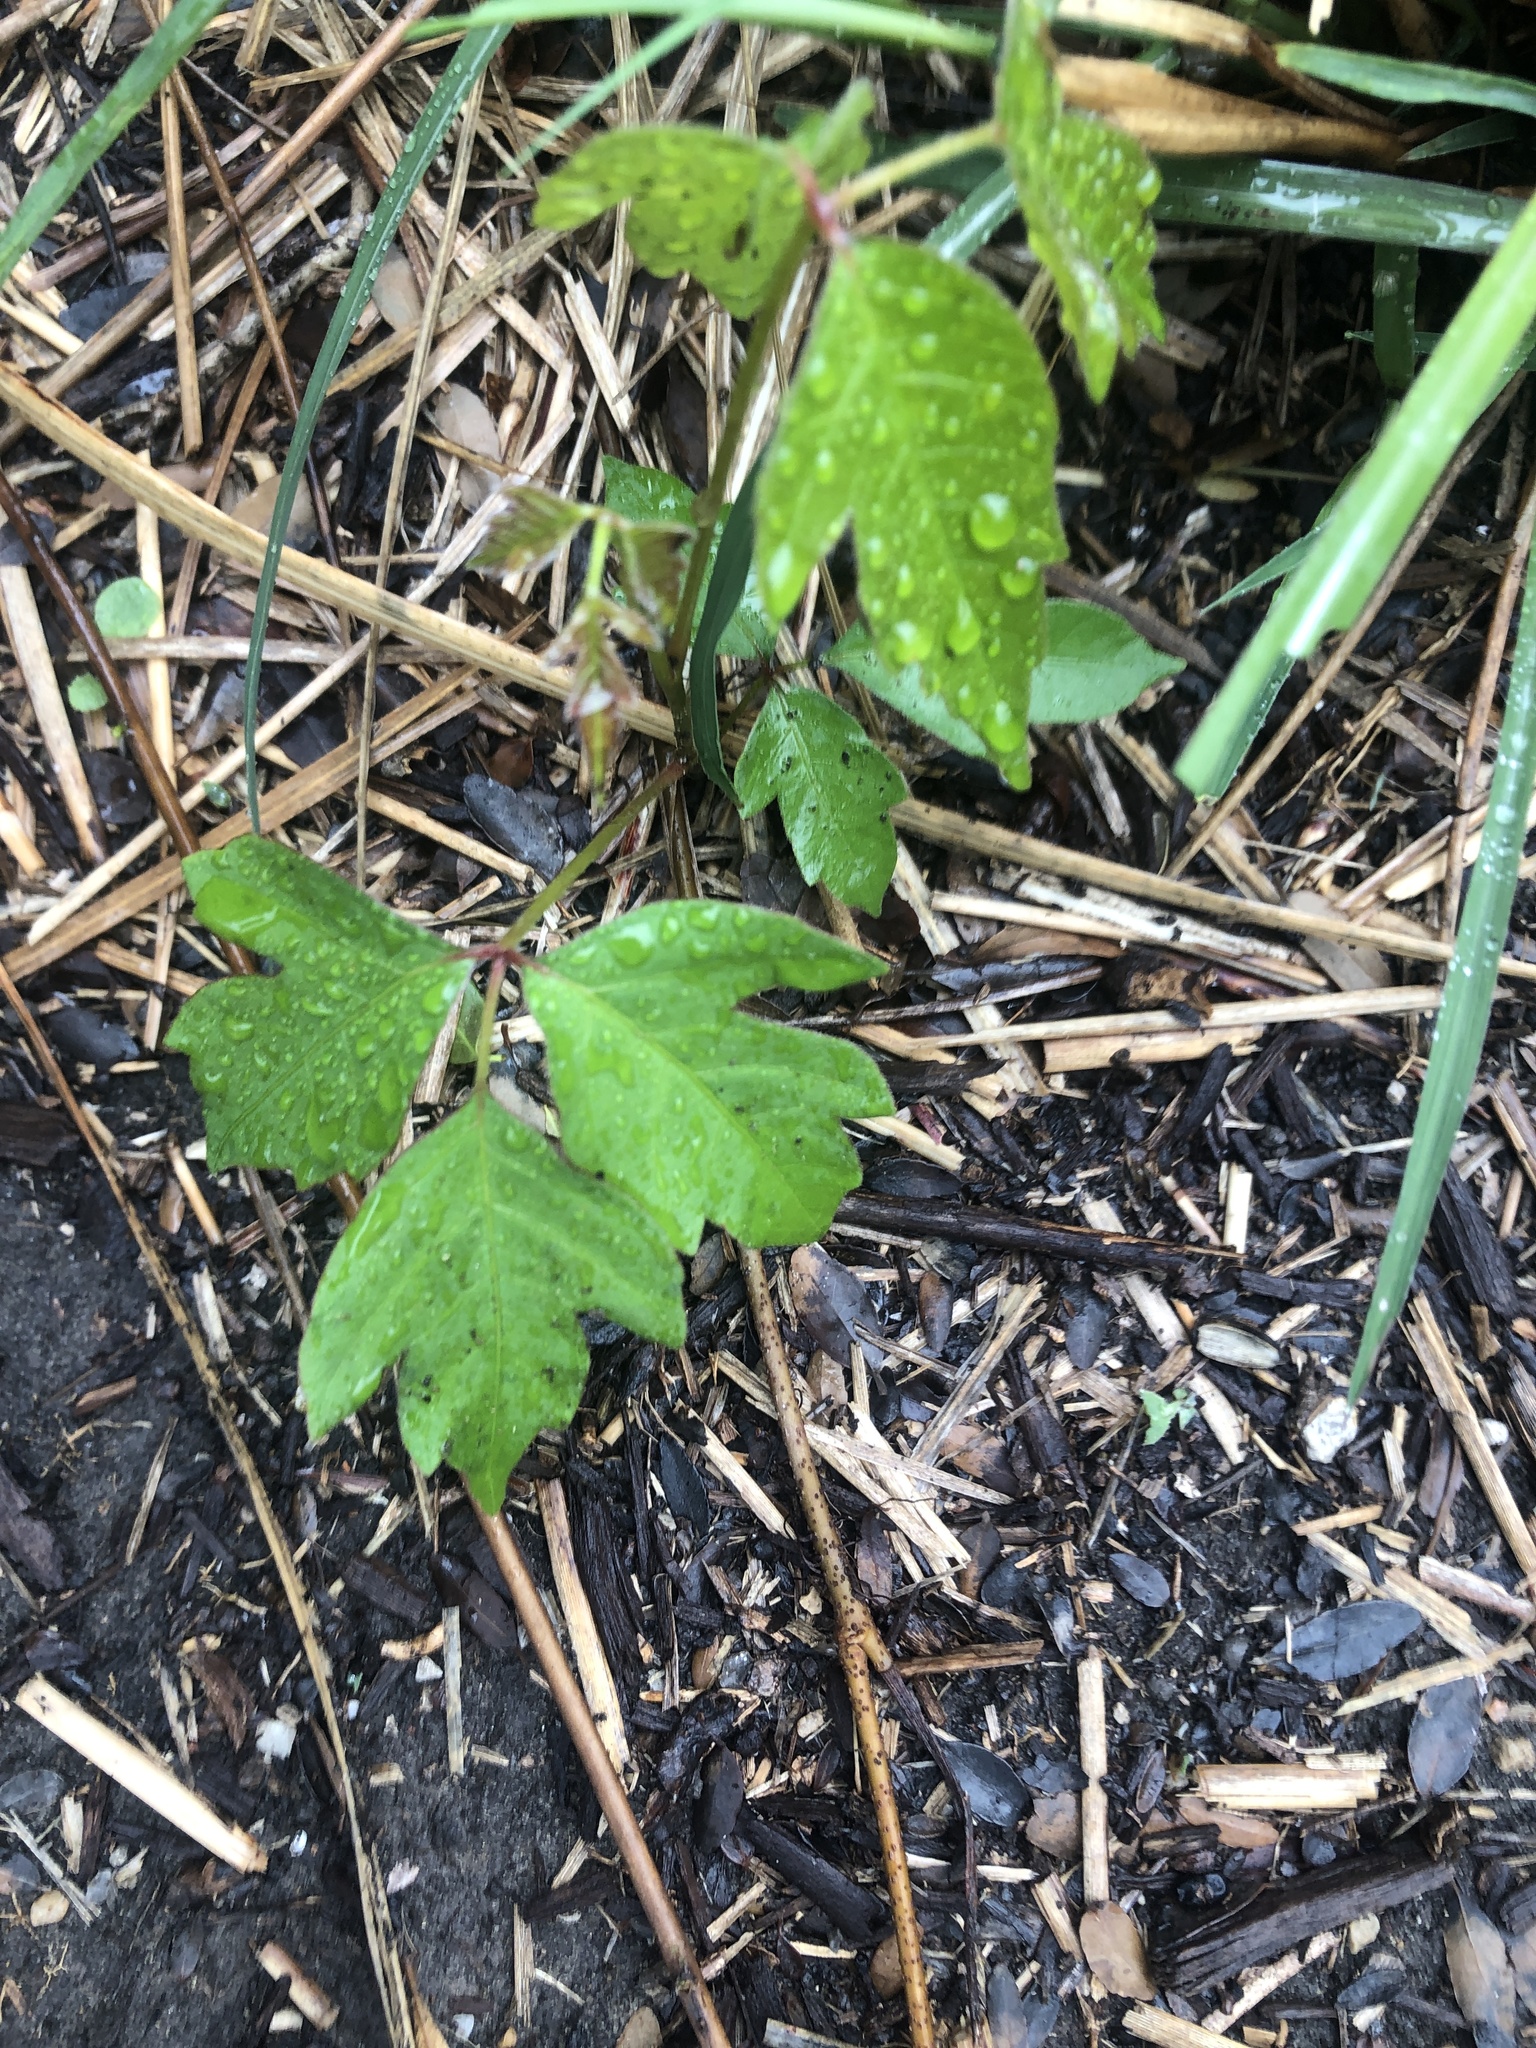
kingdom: Plantae
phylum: Tracheophyta
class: Magnoliopsida
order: Sapindales
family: Anacardiaceae
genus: Toxicodendron
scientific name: Toxicodendron radicans
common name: Poison ivy
